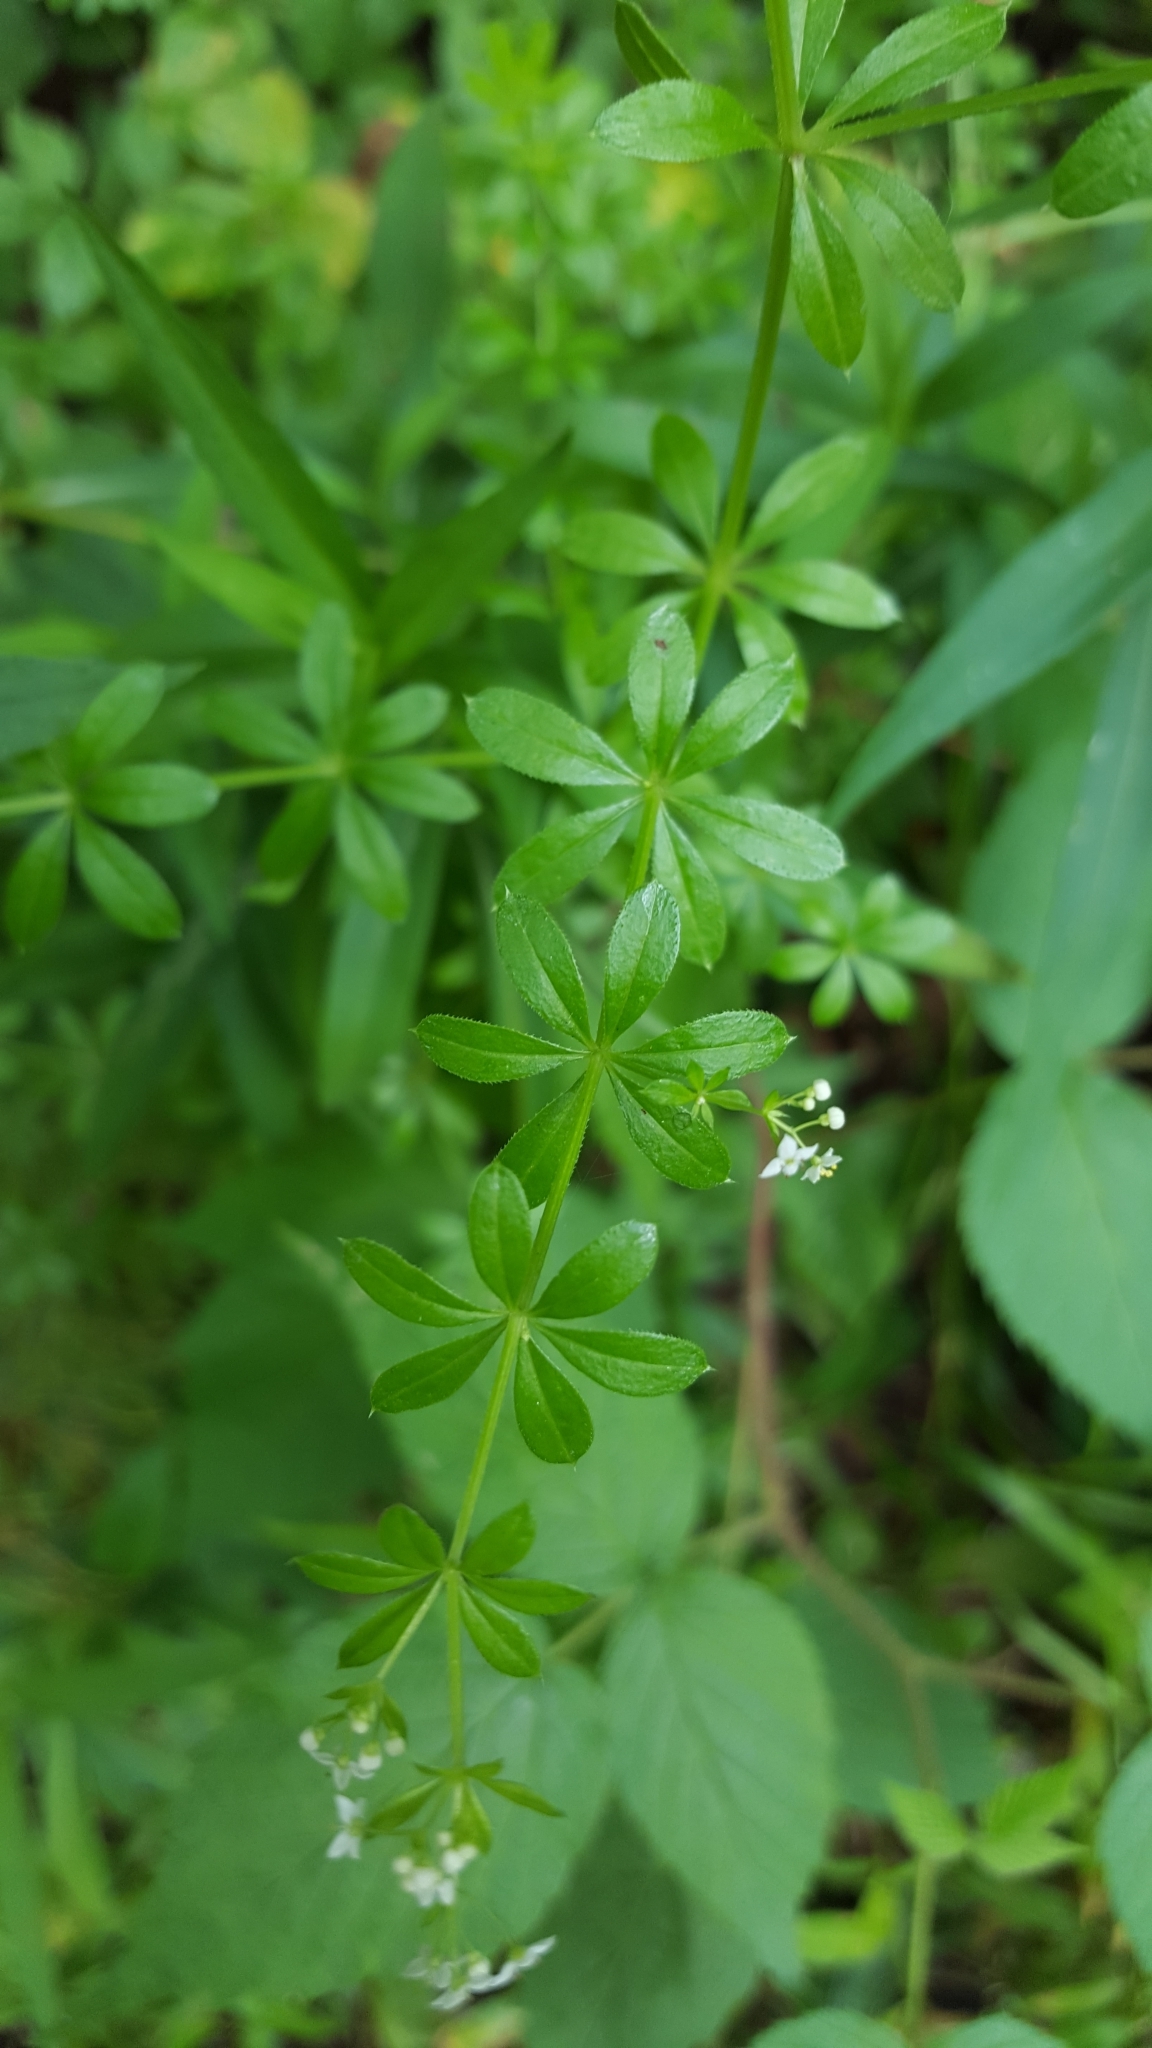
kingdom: Plantae
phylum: Tracheophyta
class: Magnoliopsida
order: Gentianales
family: Rubiaceae
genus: Galium
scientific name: Galium asprellum
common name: Rough bedstraw
